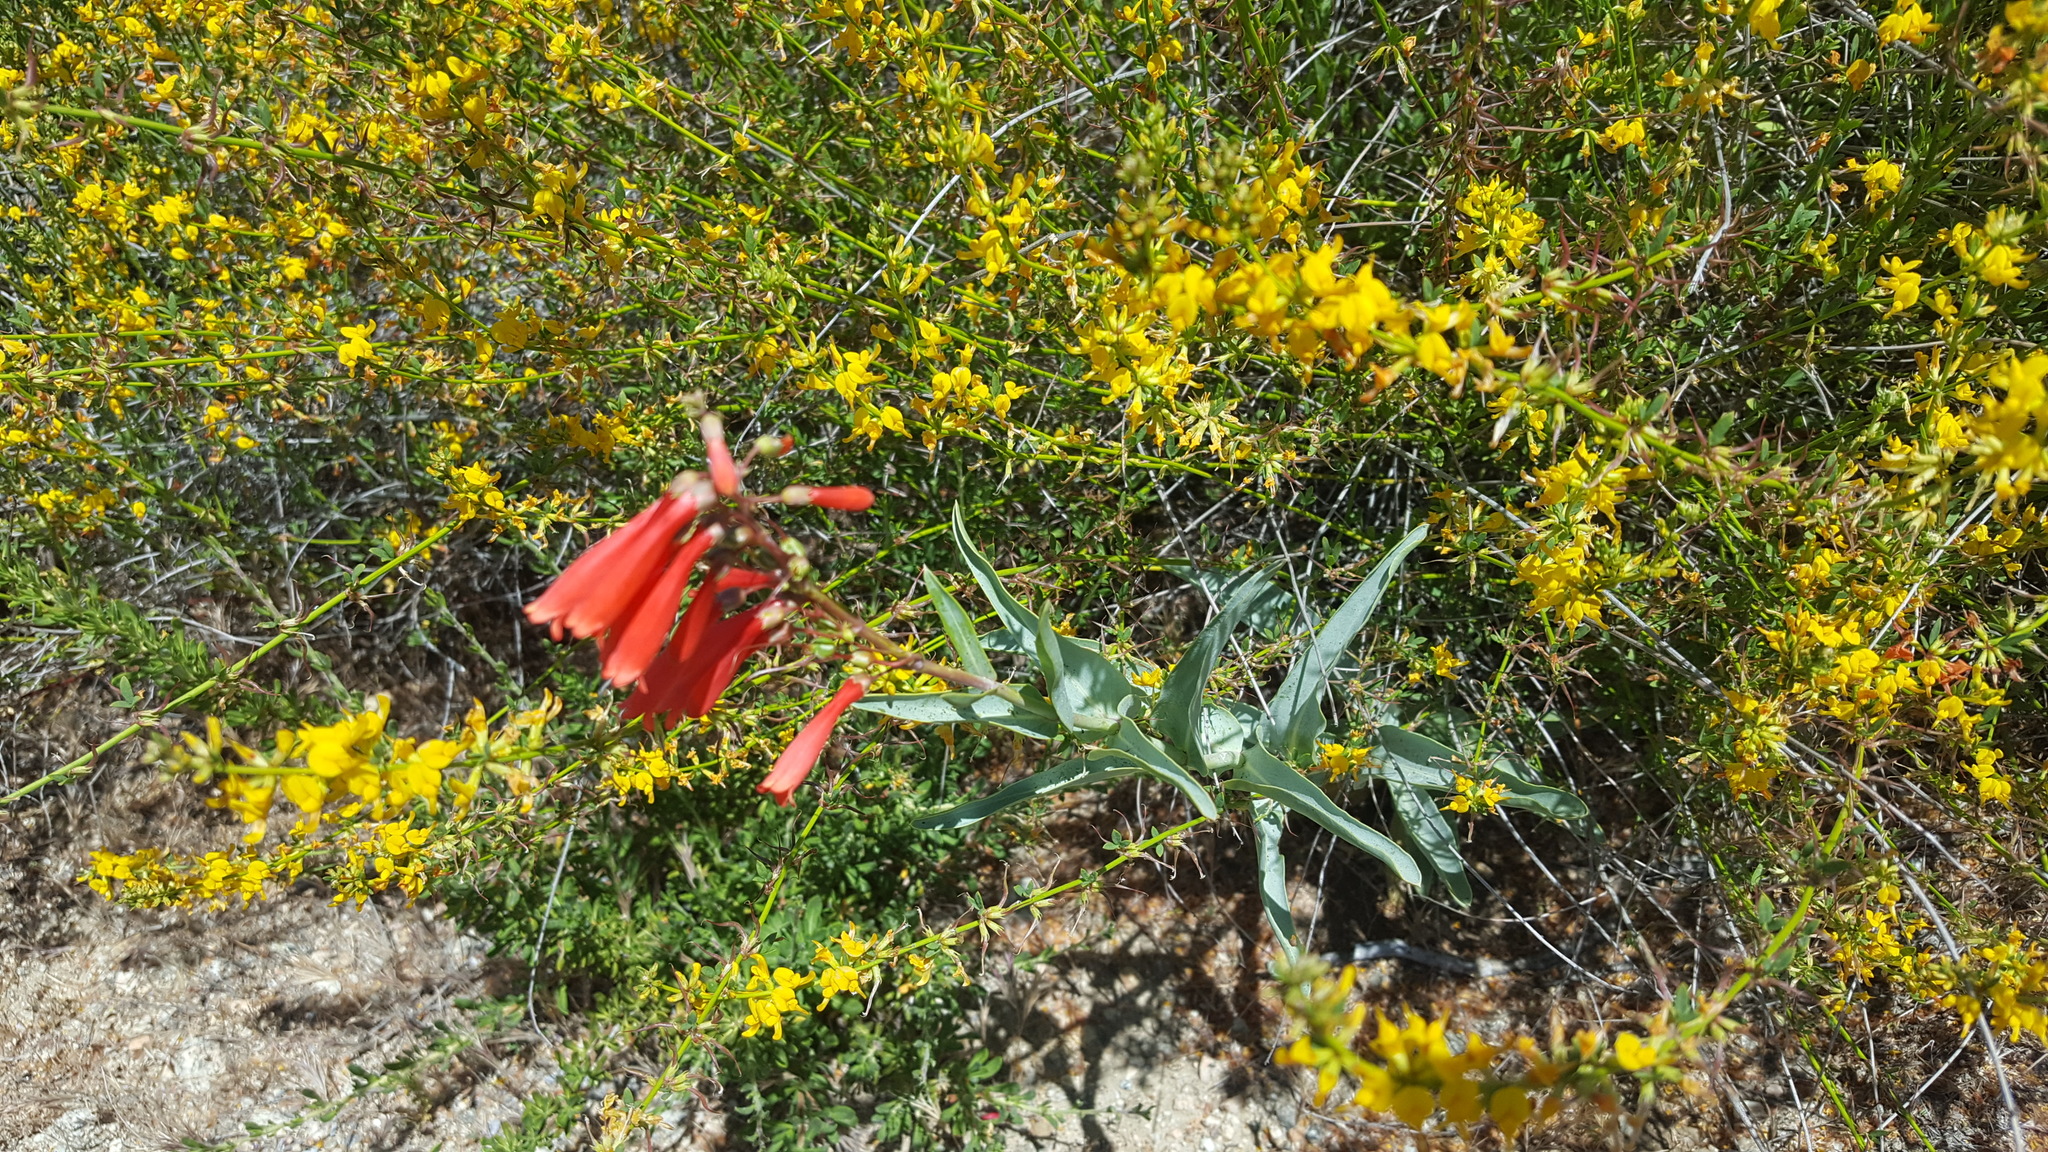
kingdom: Plantae
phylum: Tracheophyta
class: Magnoliopsida
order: Lamiales
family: Plantaginaceae
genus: Penstemon
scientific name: Penstemon centranthifolius
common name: Scarlet bugler
